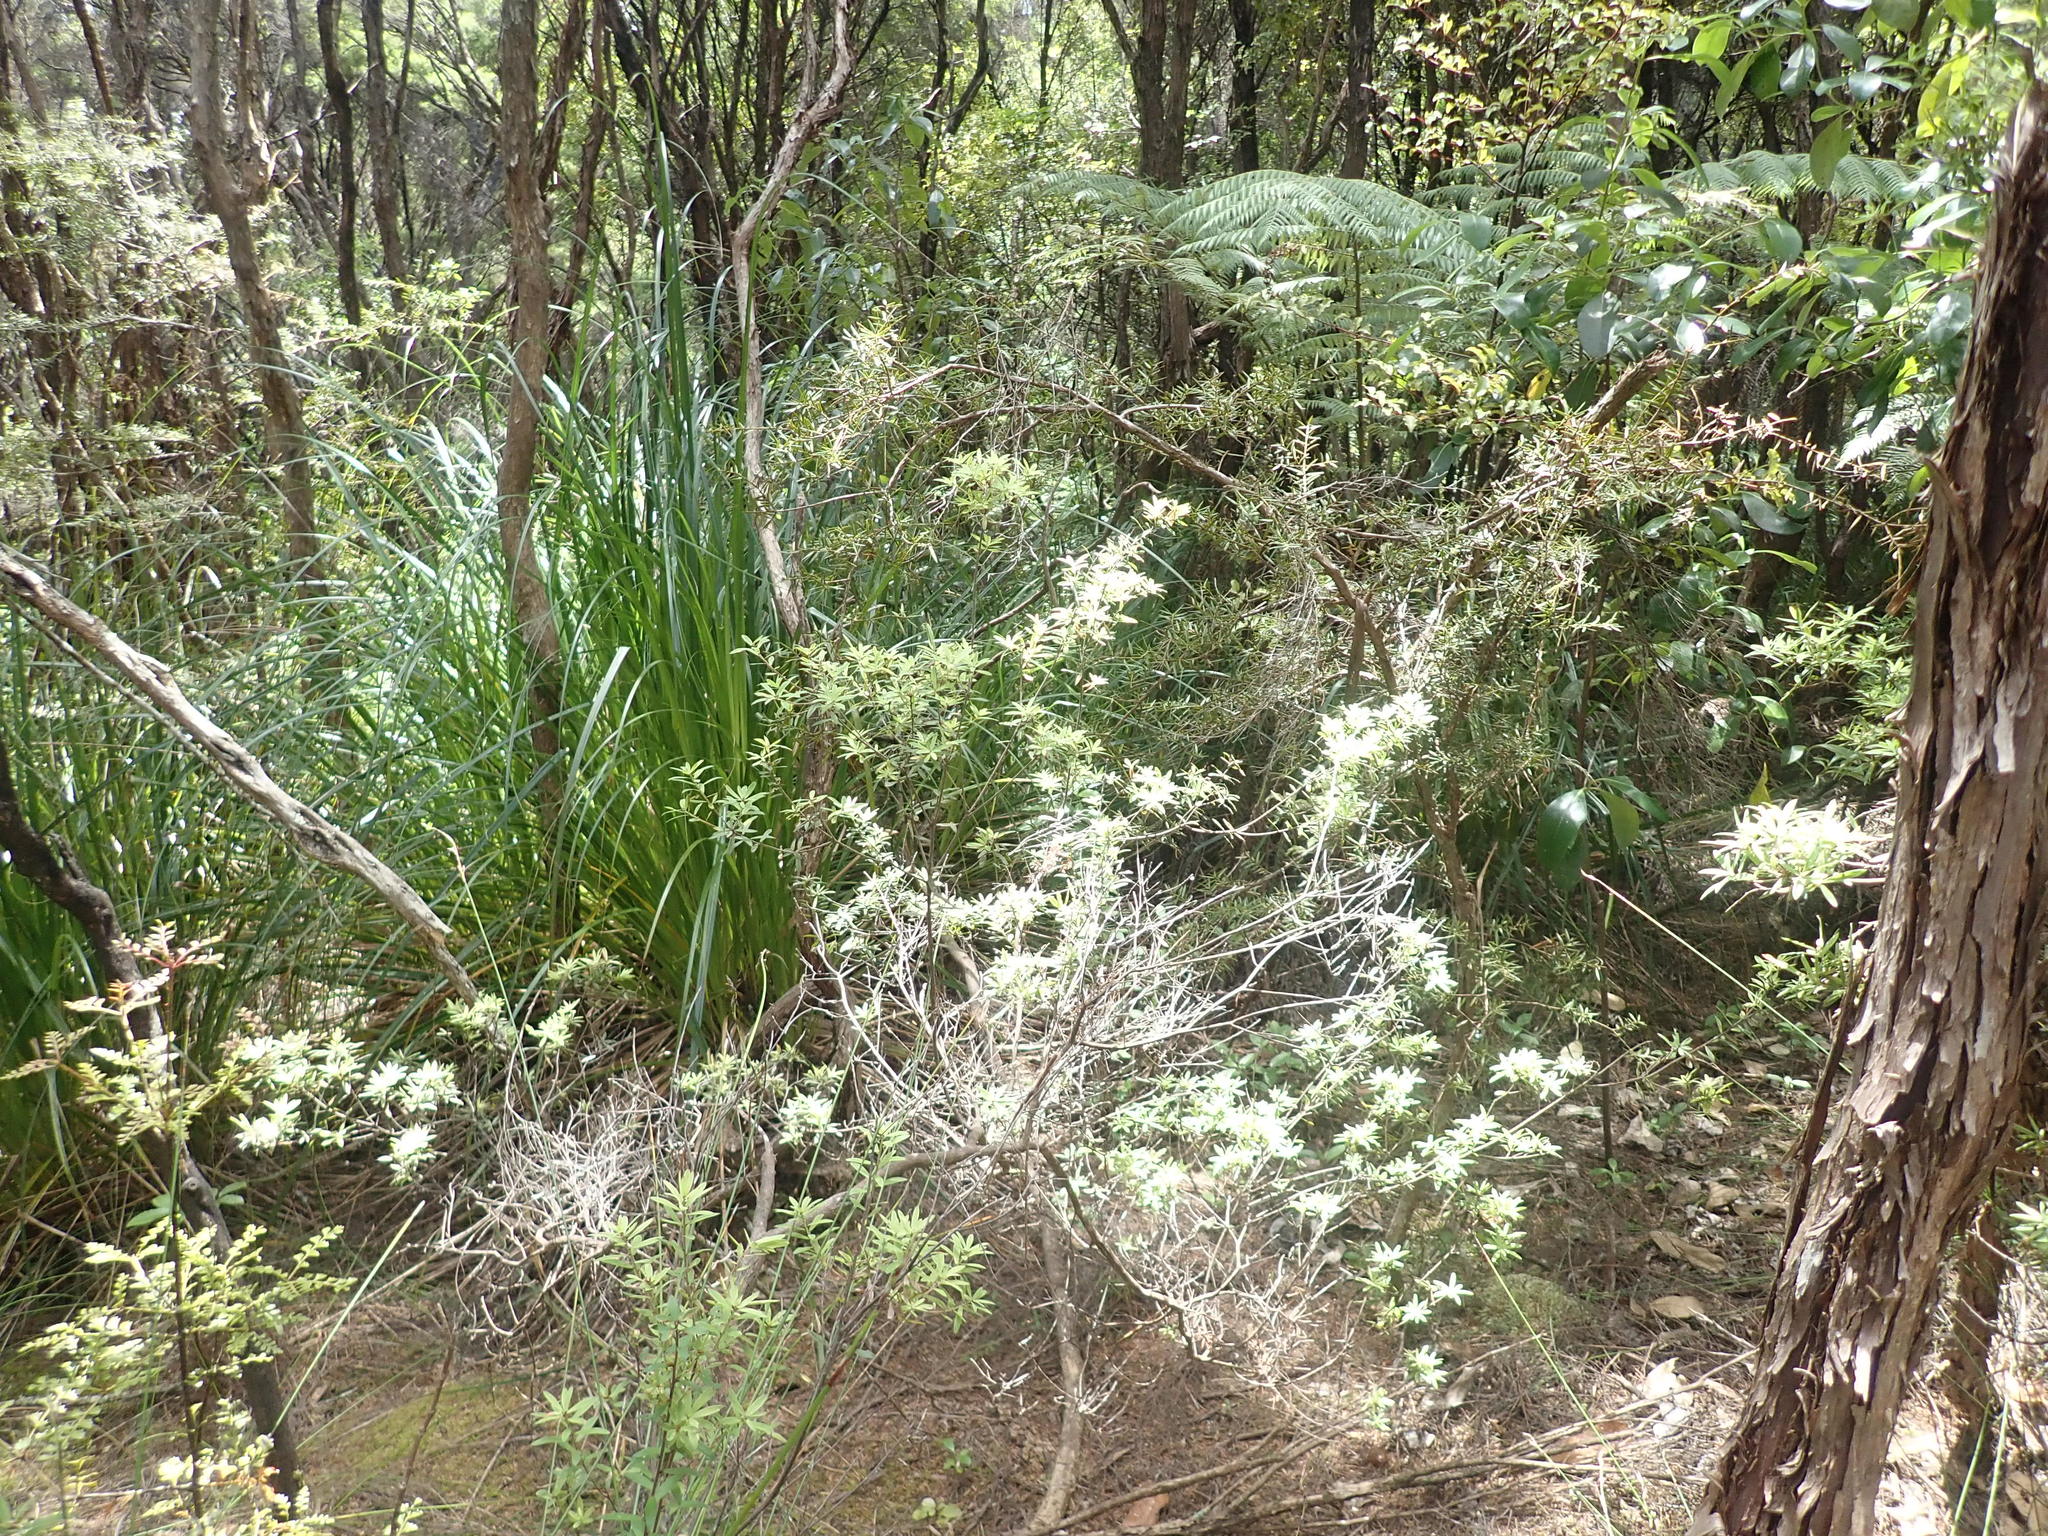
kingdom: Plantae
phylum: Tracheophyta
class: Pinopsida
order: Pinales
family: Podocarpaceae
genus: Podocarpus
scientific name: Podocarpus totara
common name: Totara
